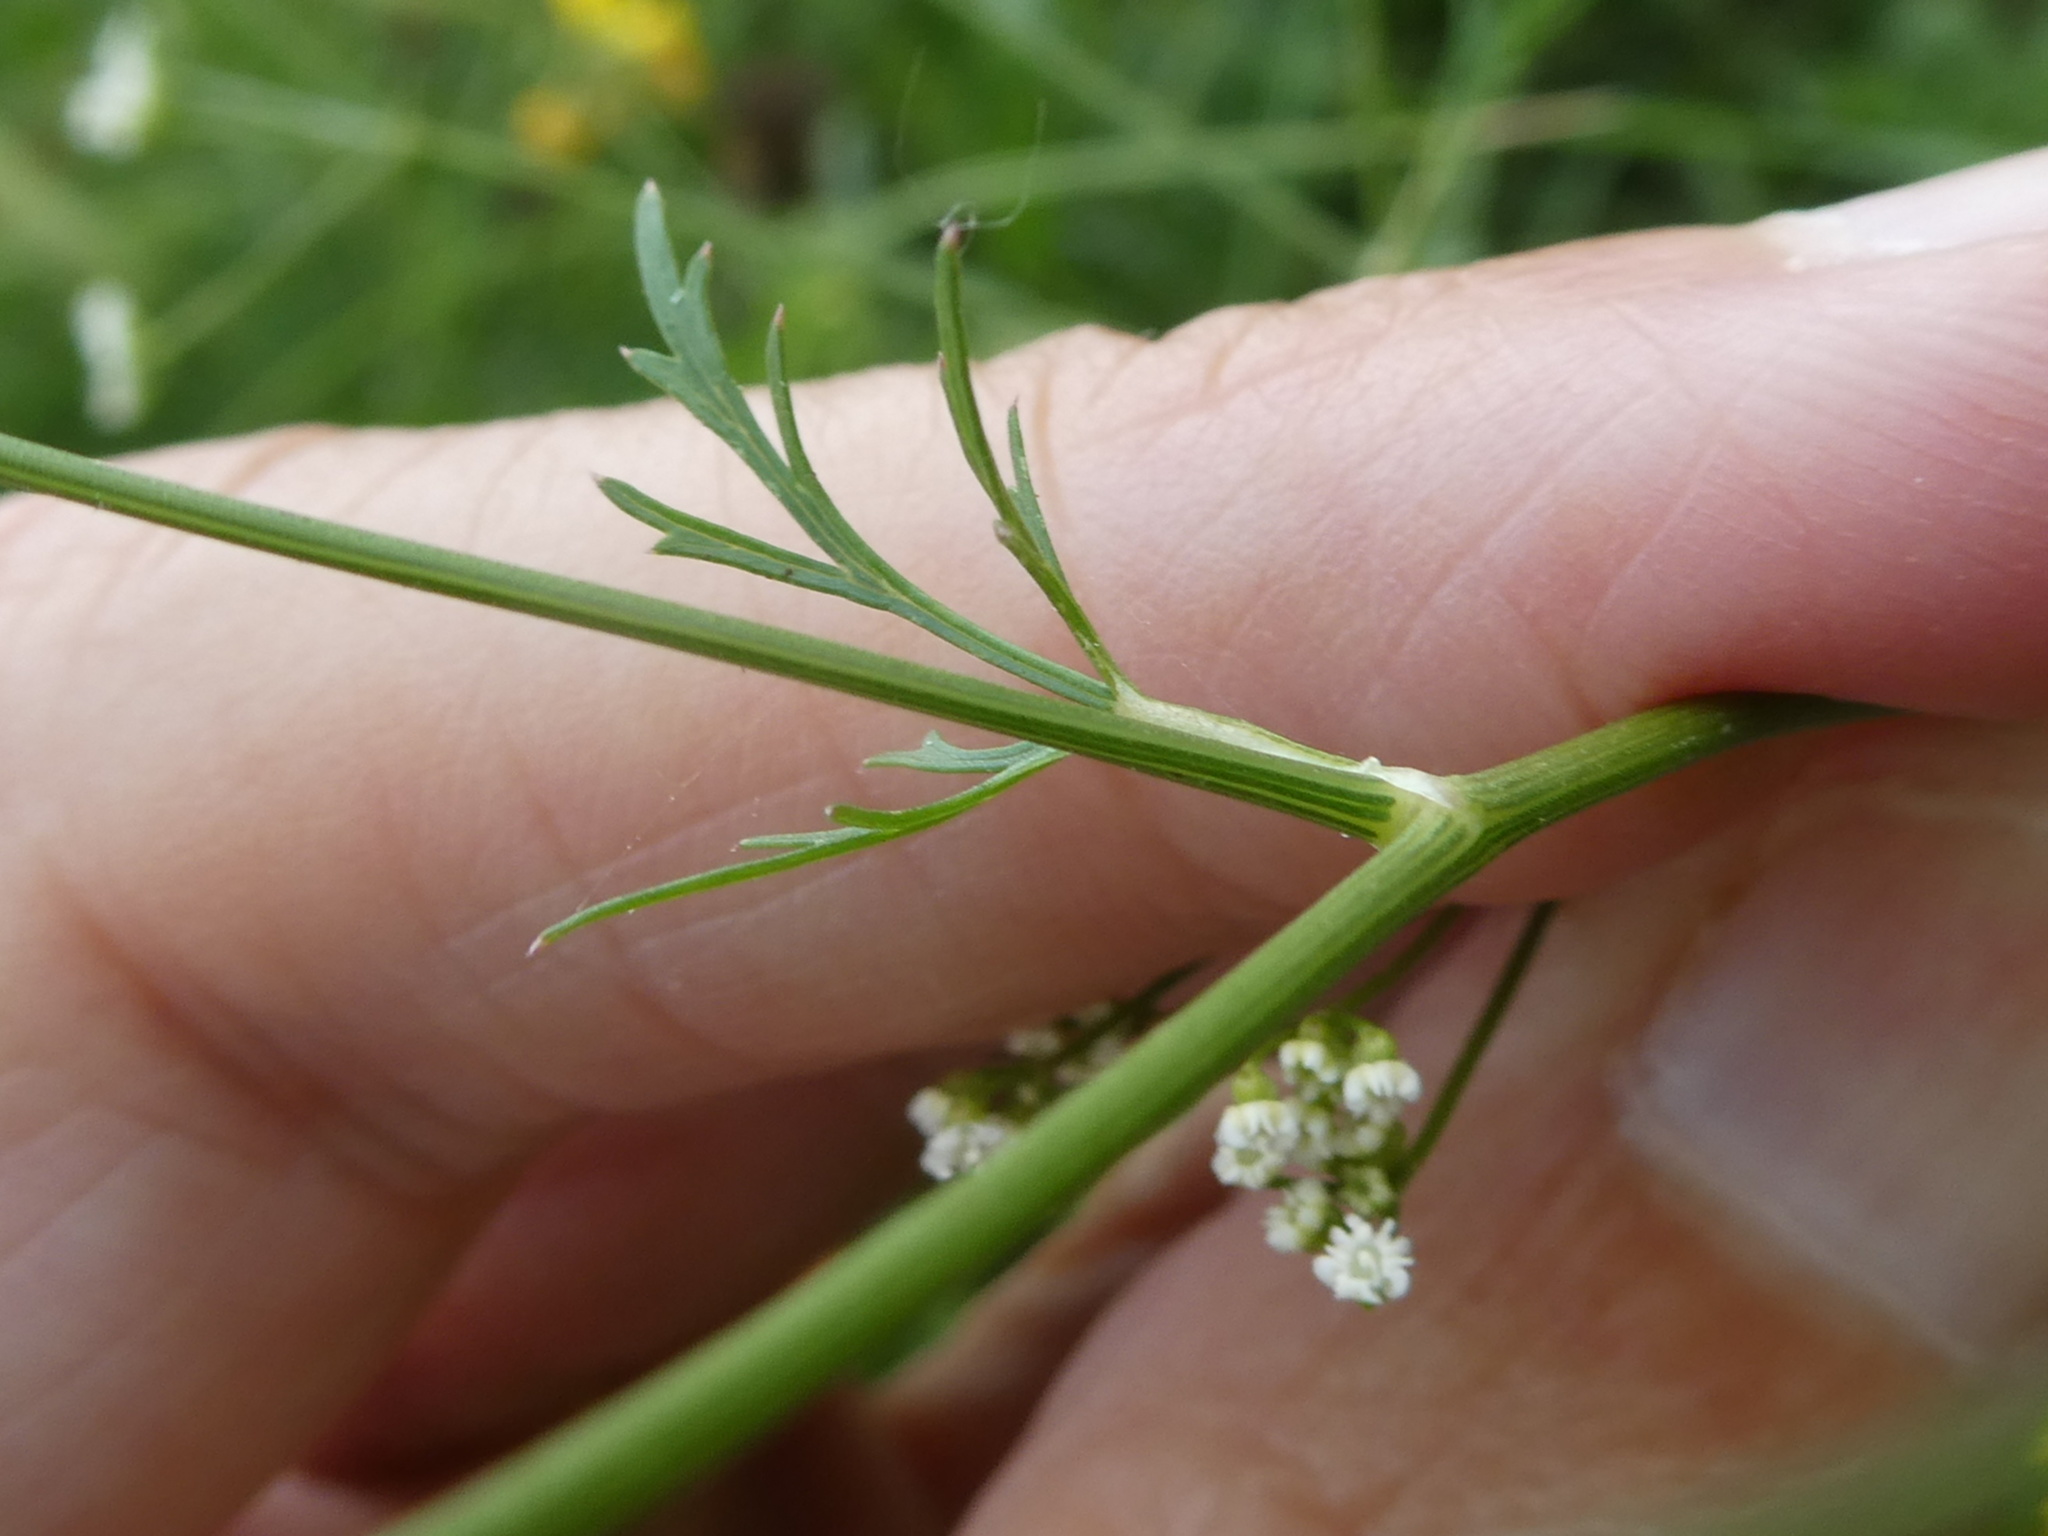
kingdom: Plantae
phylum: Tracheophyta
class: Magnoliopsida
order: Apiales
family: Apiaceae
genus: Sison
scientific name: Sison amomum
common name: Stone-parsley
